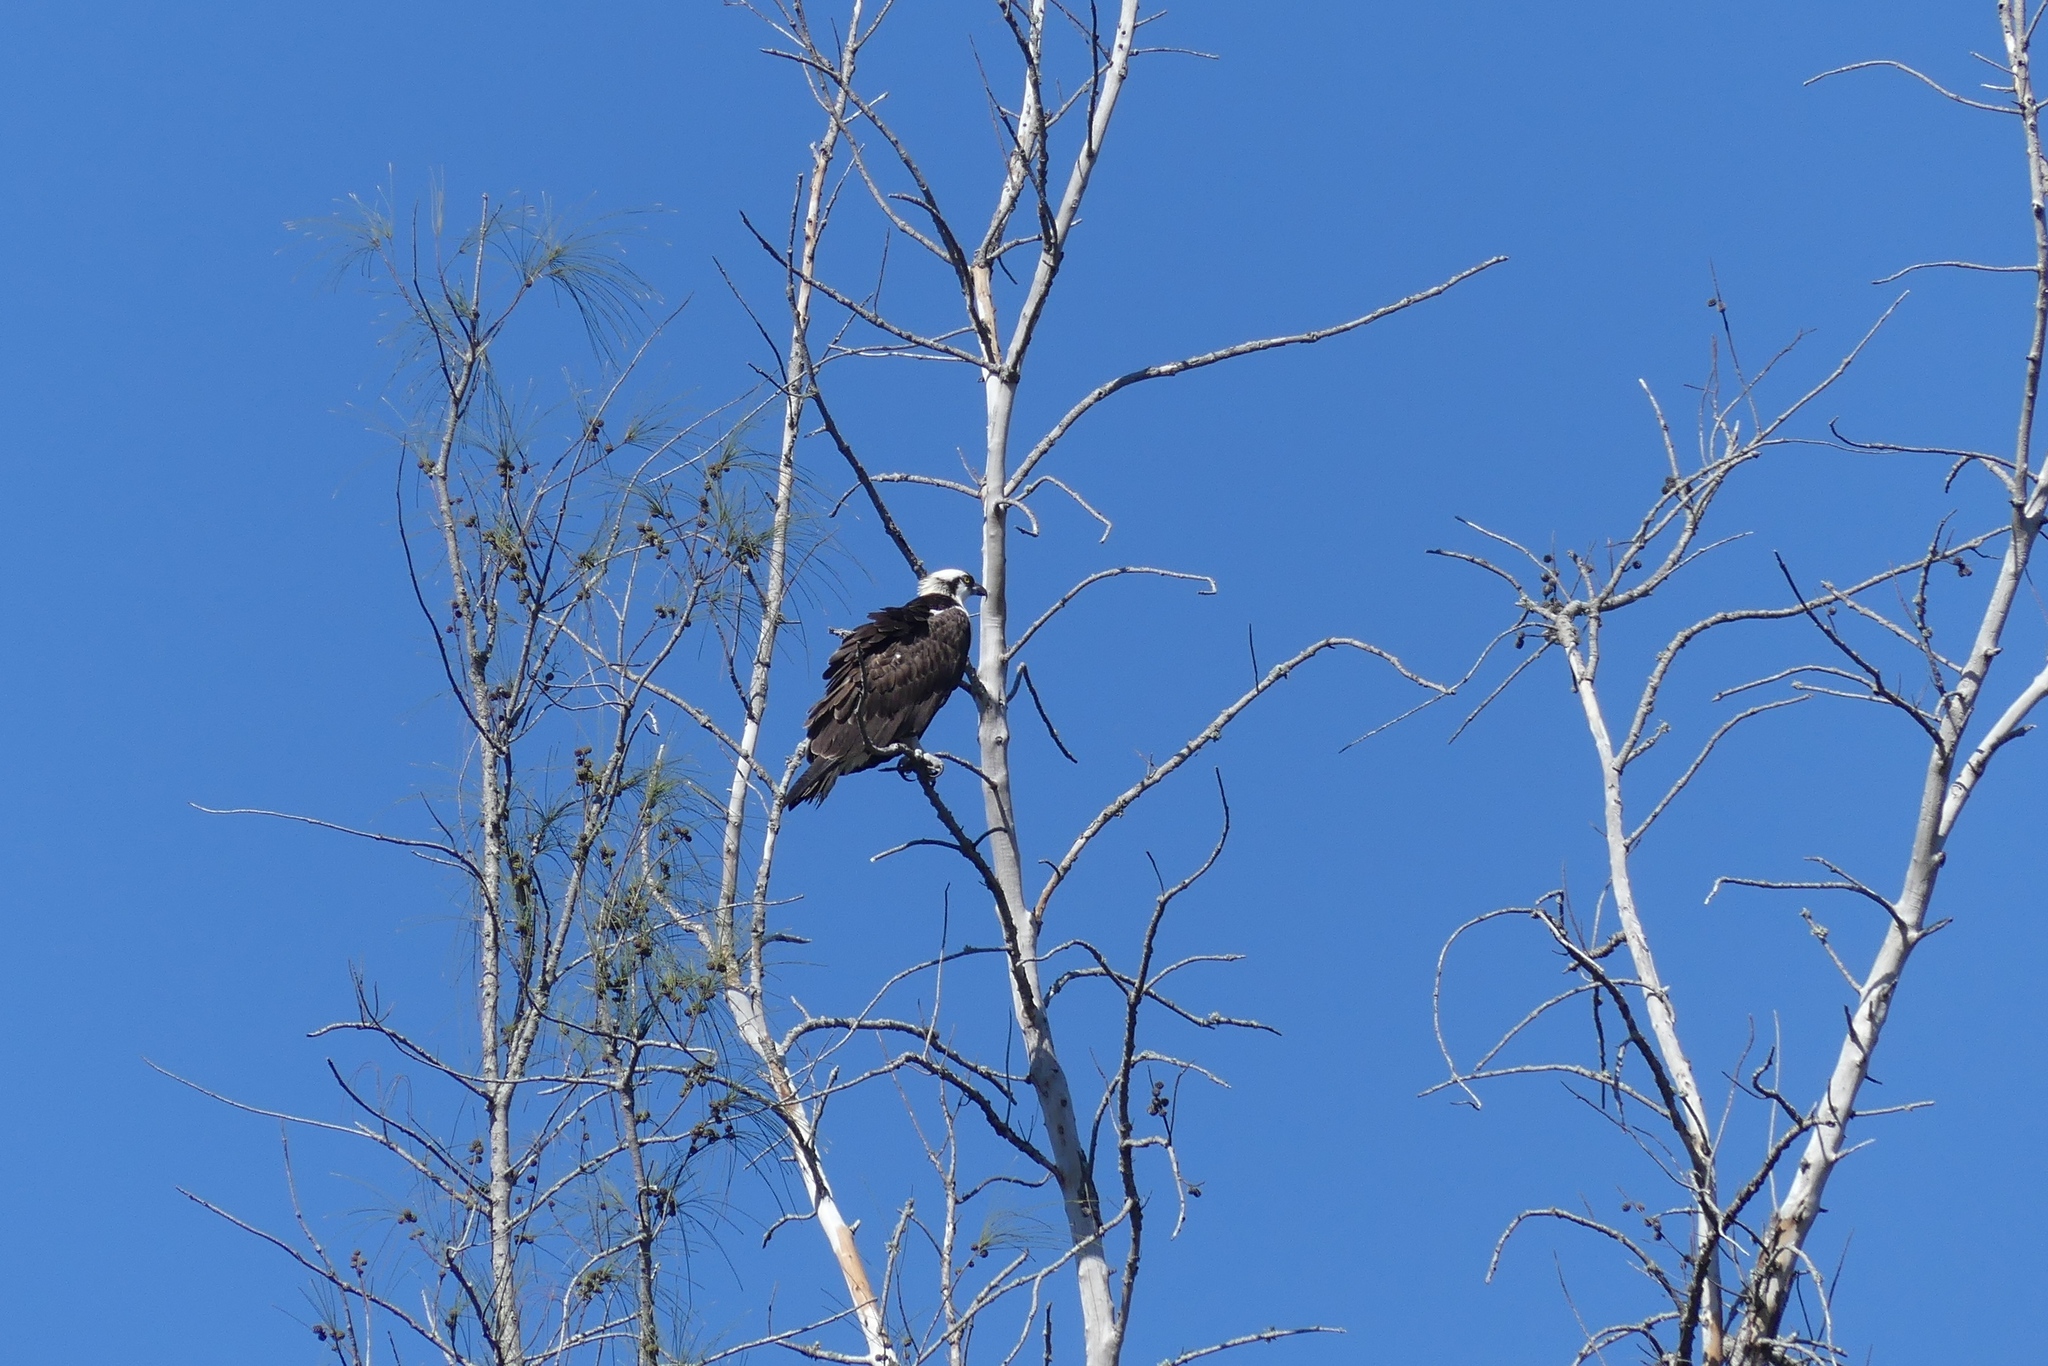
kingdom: Animalia
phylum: Chordata
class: Aves
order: Accipitriformes
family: Pandionidae
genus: Pandion
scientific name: Pandion haliaetus
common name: Osprey
